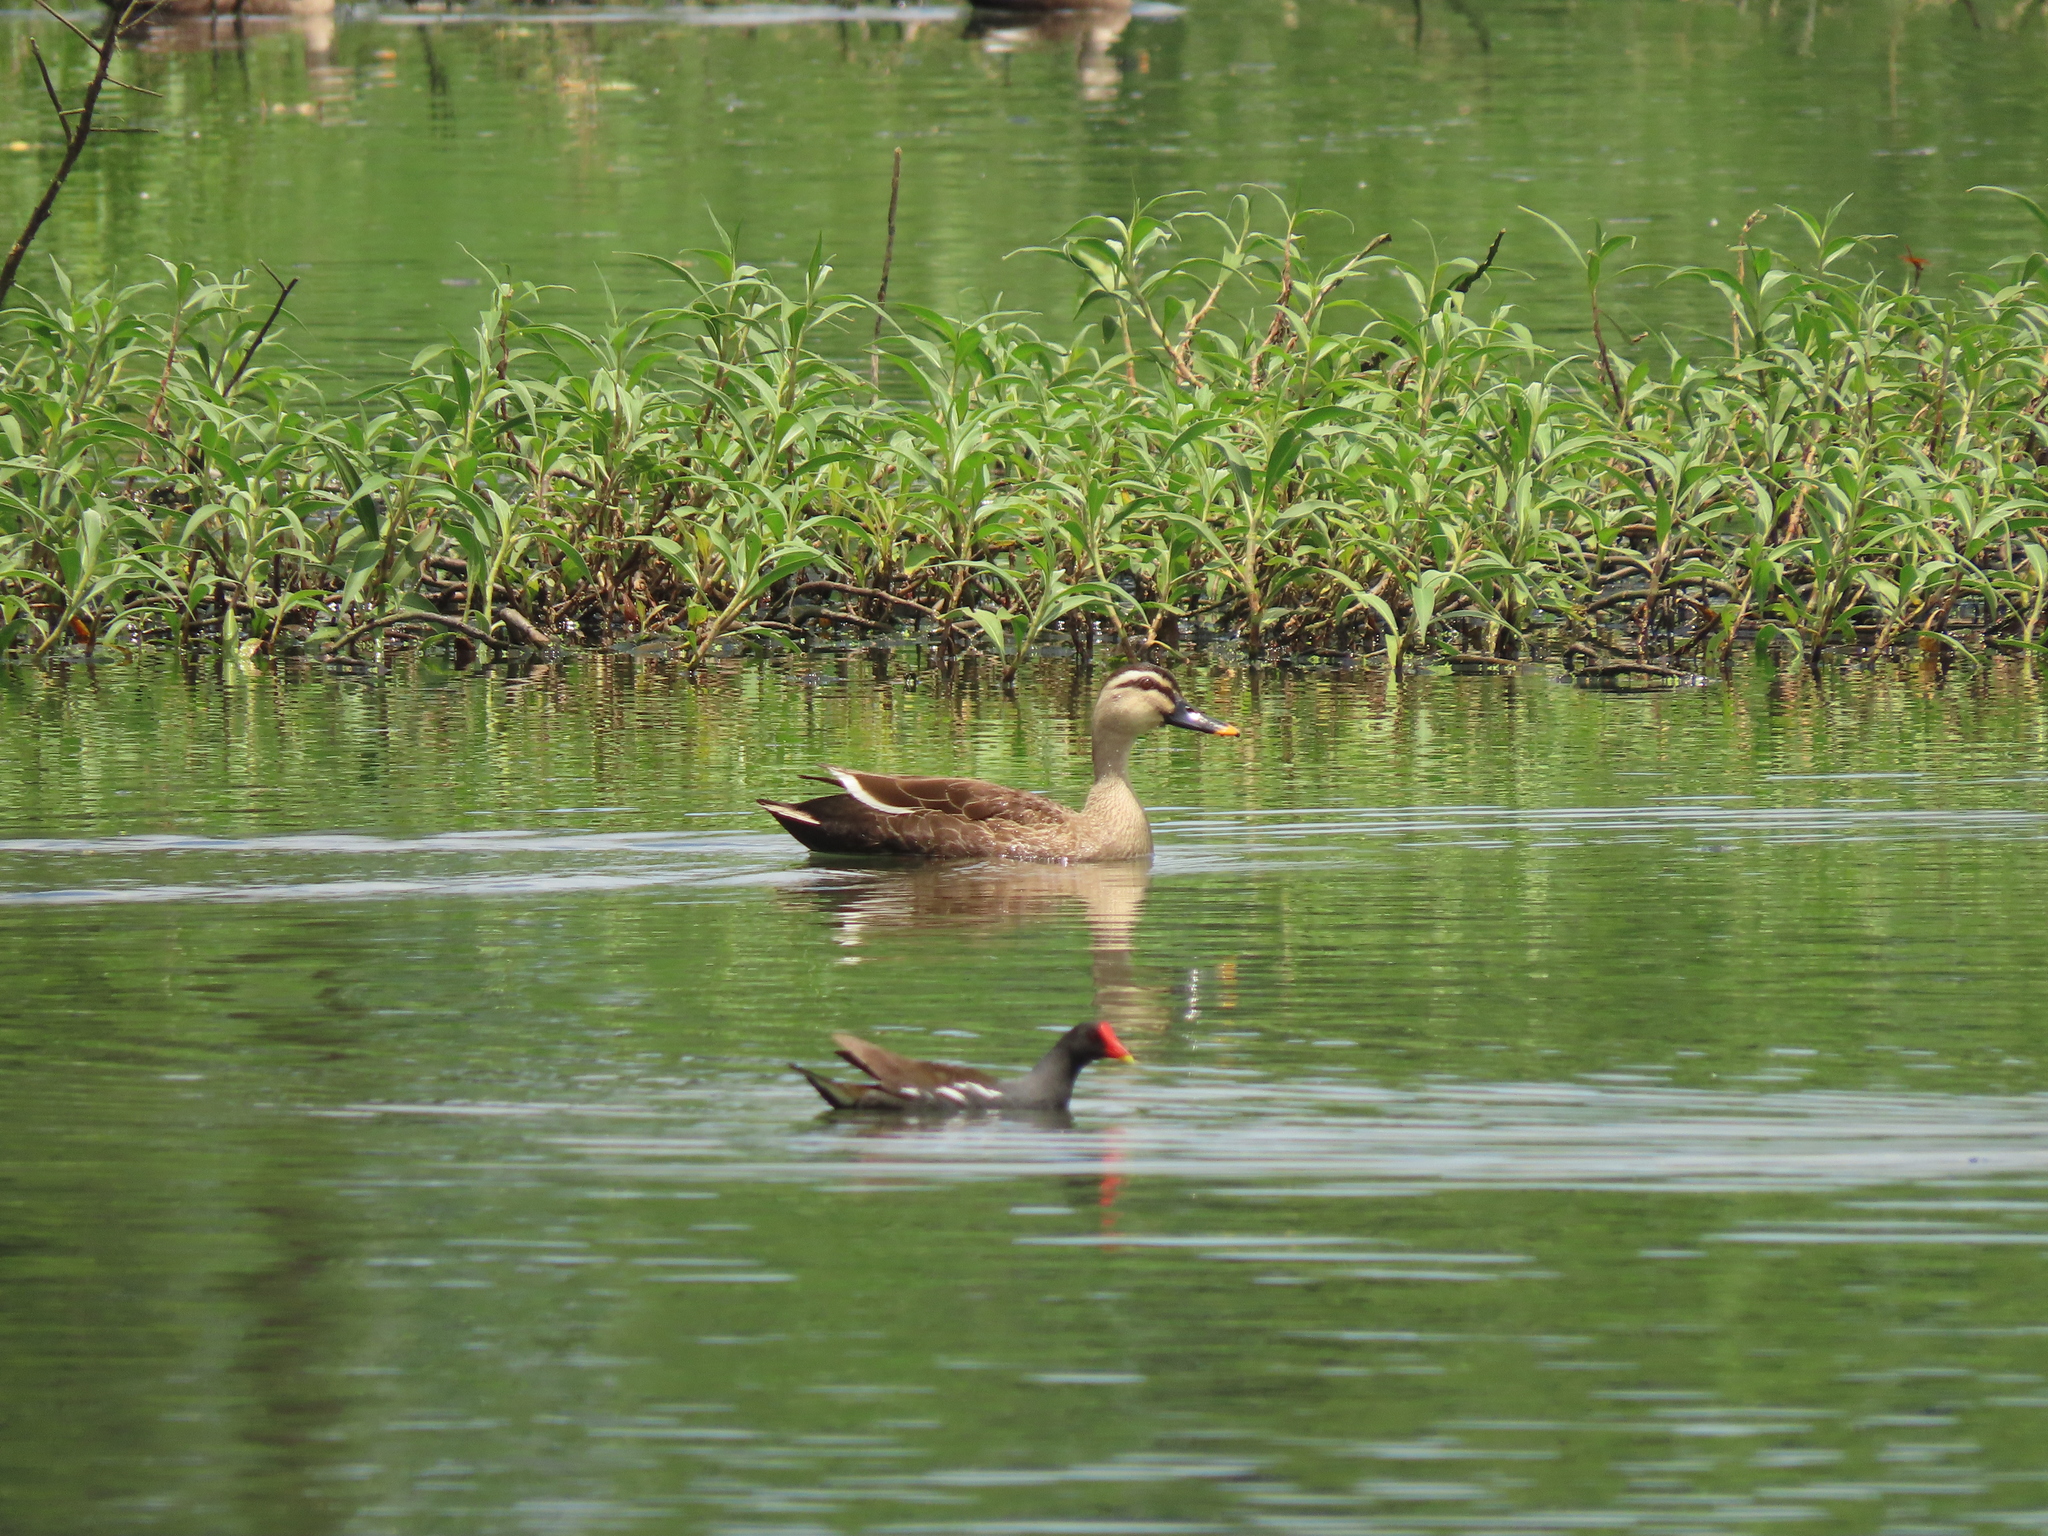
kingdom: Animalia
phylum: Chordata
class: Aves
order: Anseriformes
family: Anatidae
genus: Anas
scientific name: Anas zonorhyncha
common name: Eastern spot-billed duck
